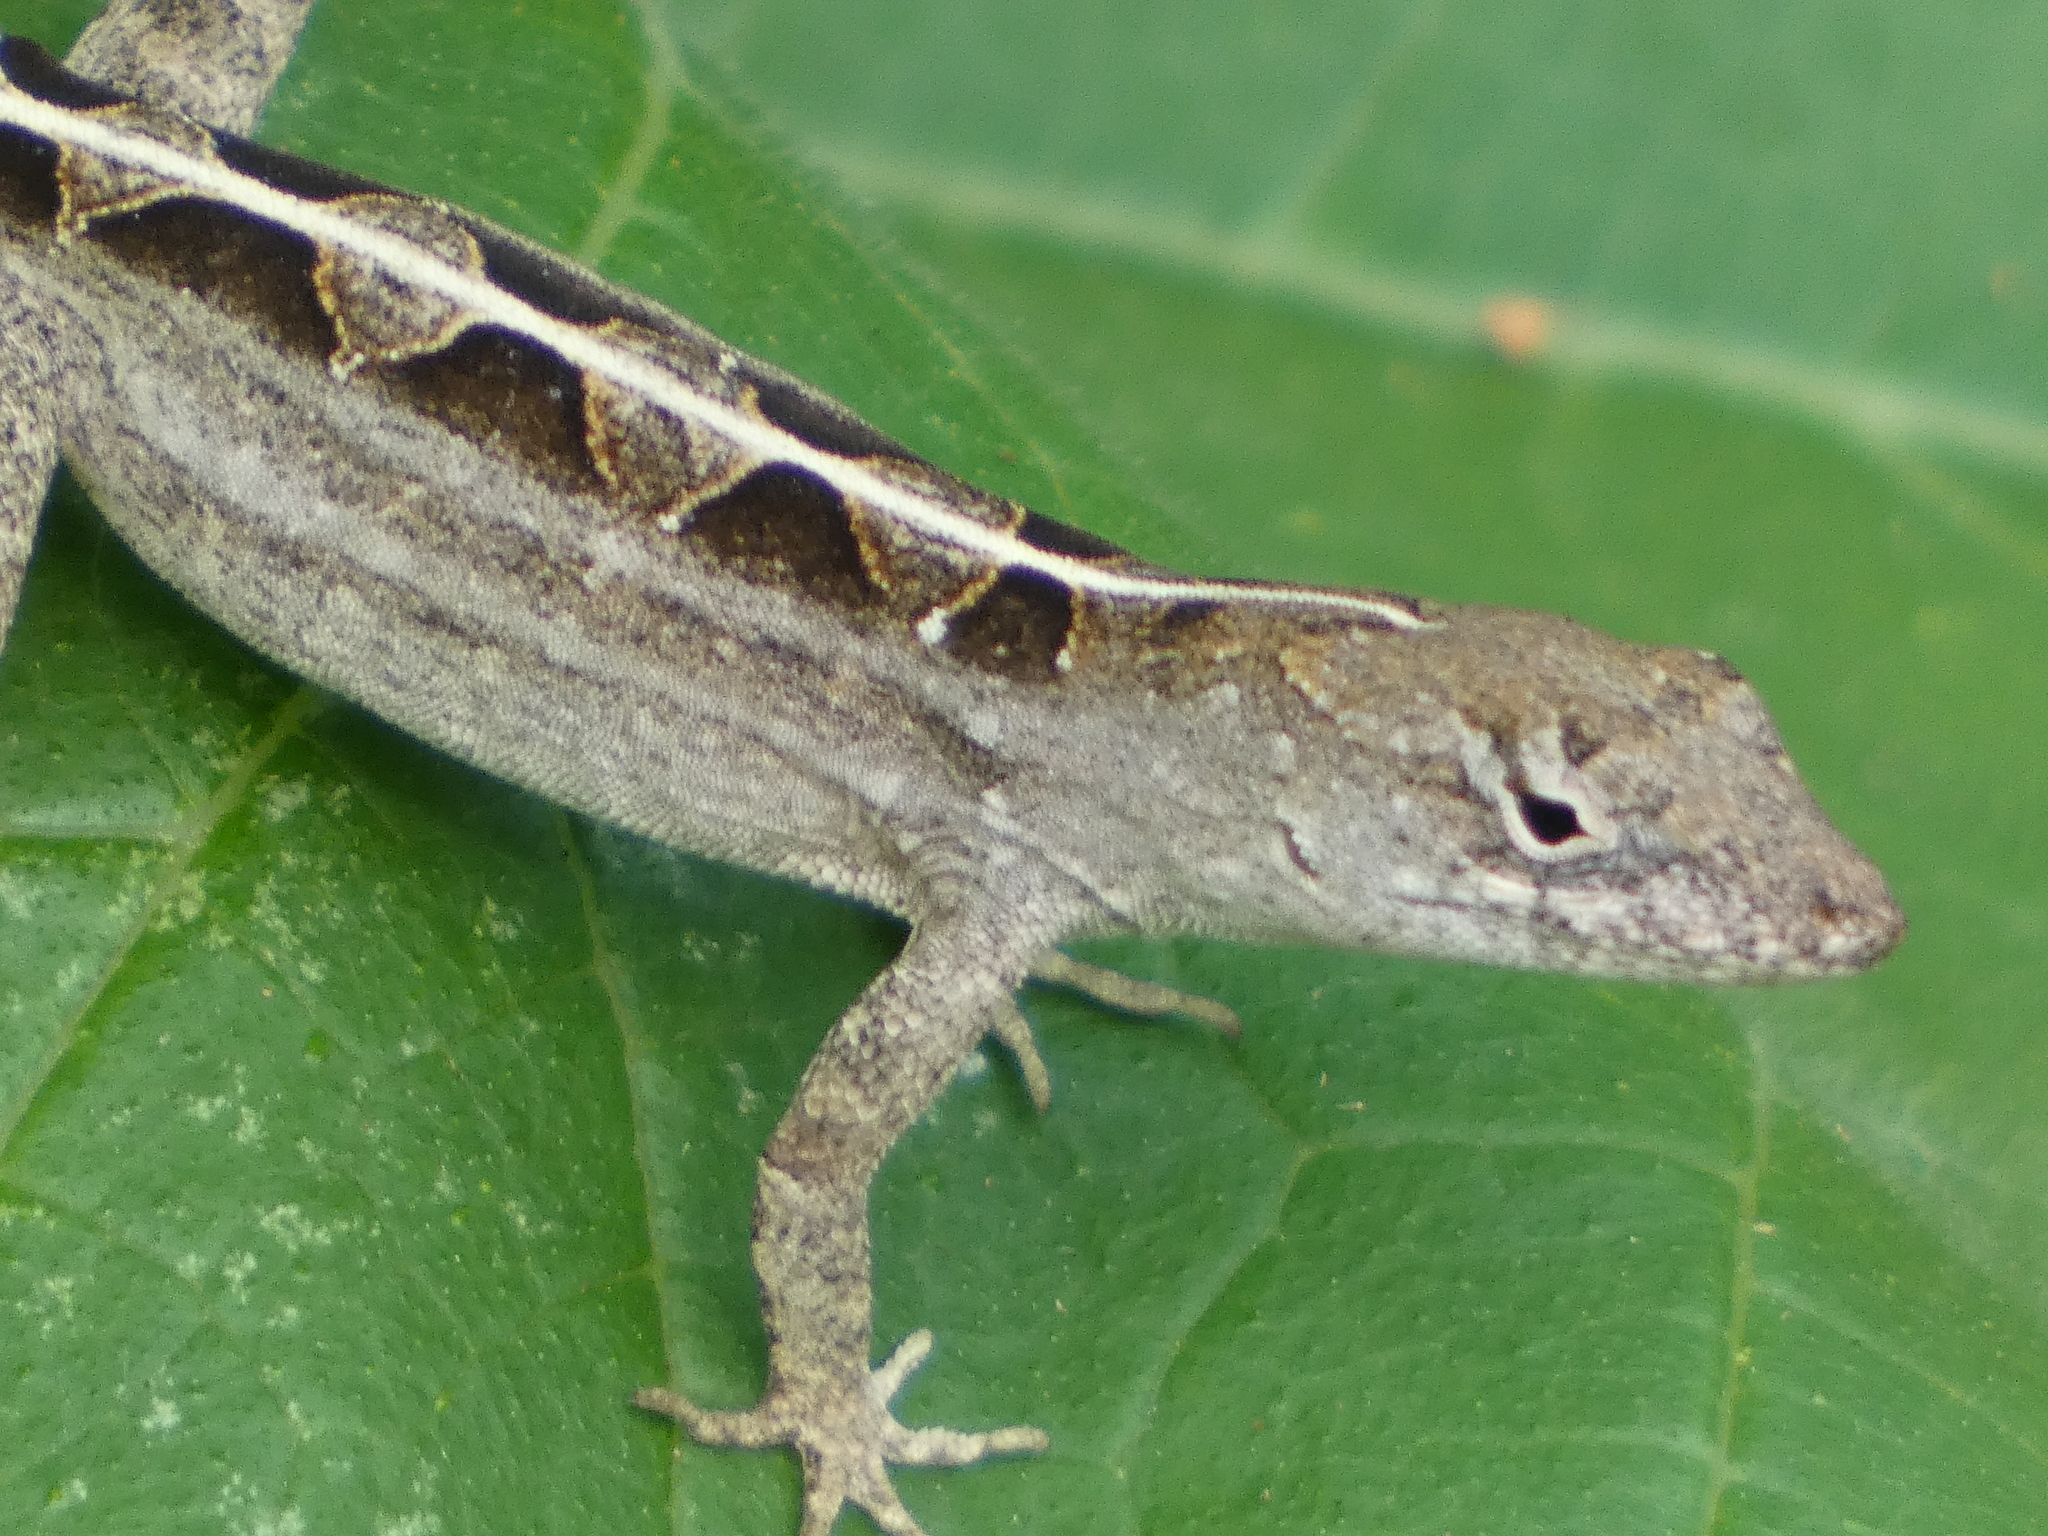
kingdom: Animalia
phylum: Chordata
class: Squamata
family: Dactyloidae
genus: Anolis
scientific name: Anolis sagrei
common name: Brown anole
